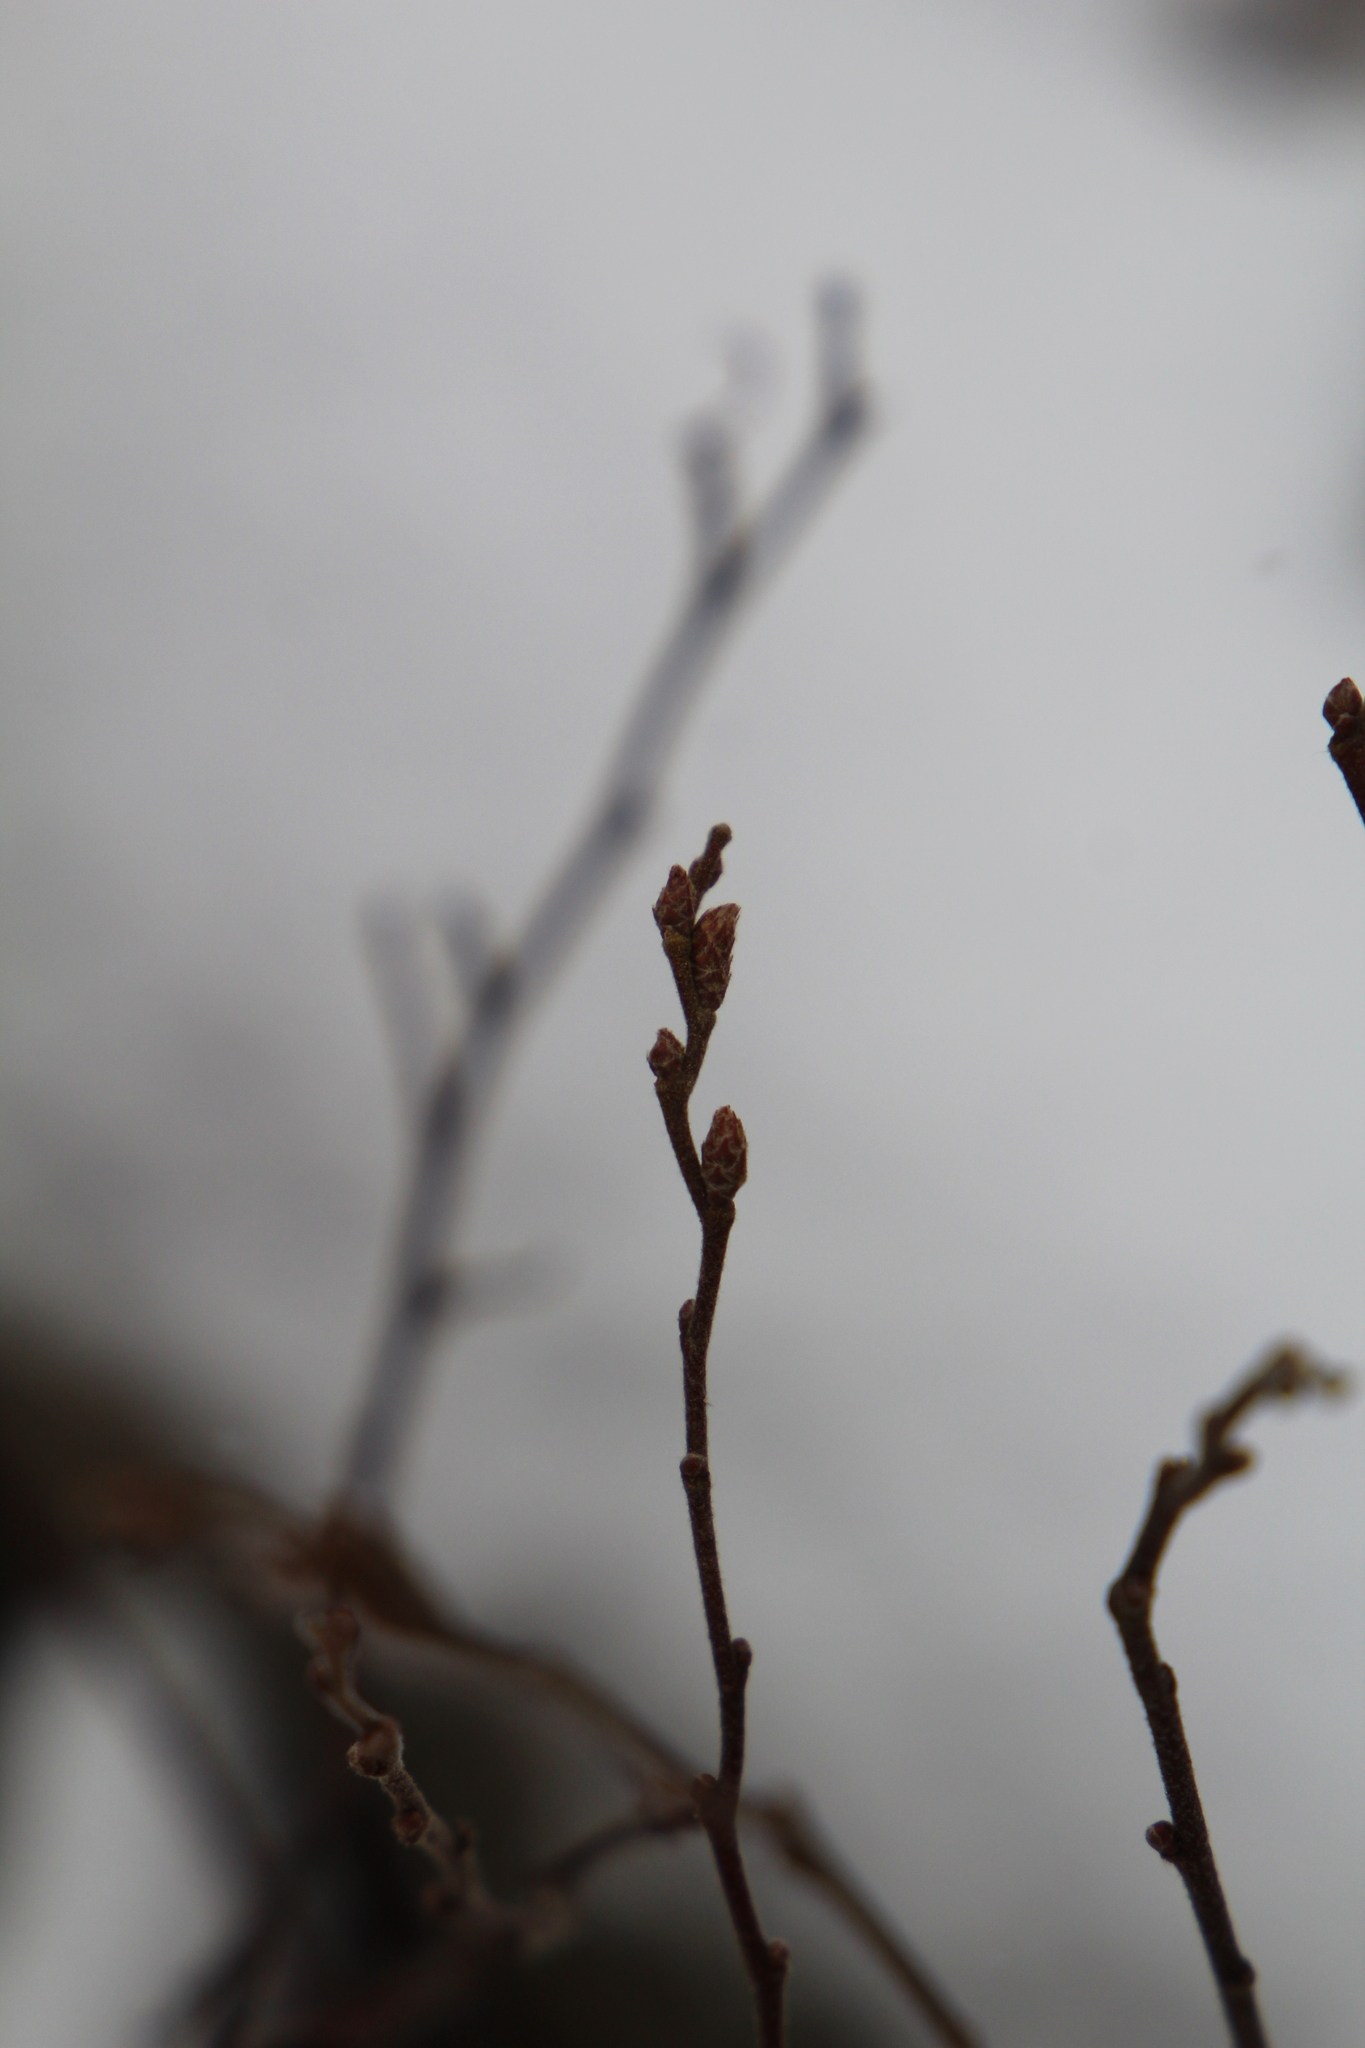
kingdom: Plantae
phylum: Tracheophyta
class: Magnoliopsida
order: Fagales
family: Myricaceae
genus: Comptonia
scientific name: Comptonia peregrina
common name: Sweet-fern
